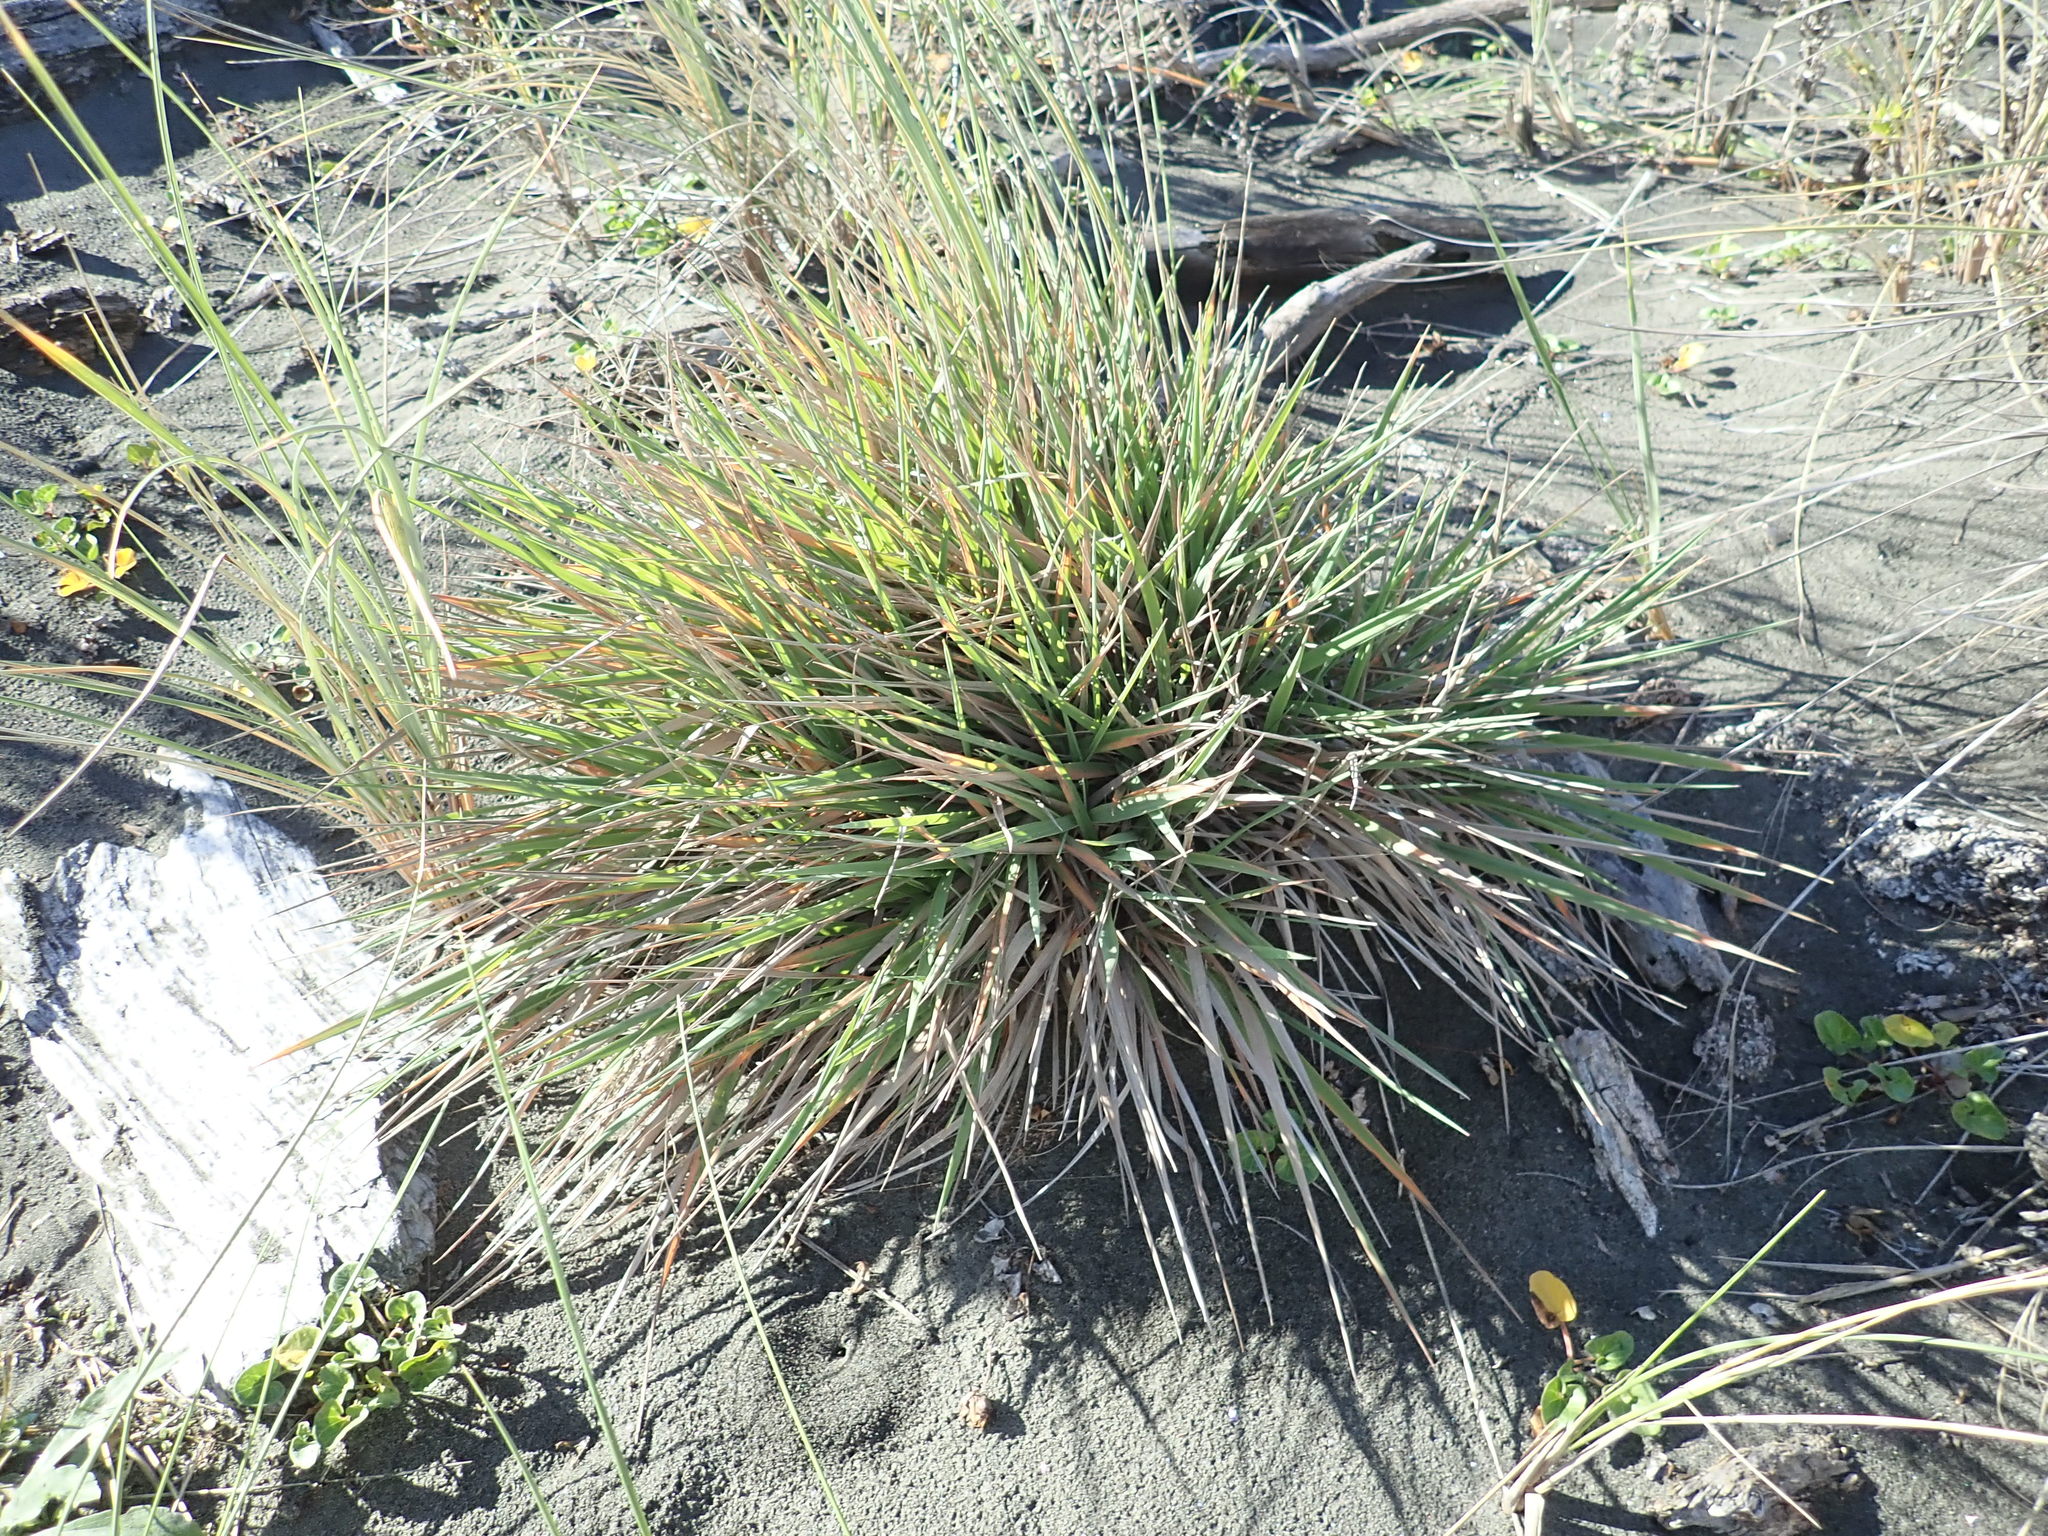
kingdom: Plantae
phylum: Tracheophyta
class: Liliopsida
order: Poales
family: Poaceae
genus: Lachnagrostis
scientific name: Lachnagrostis billardierei
